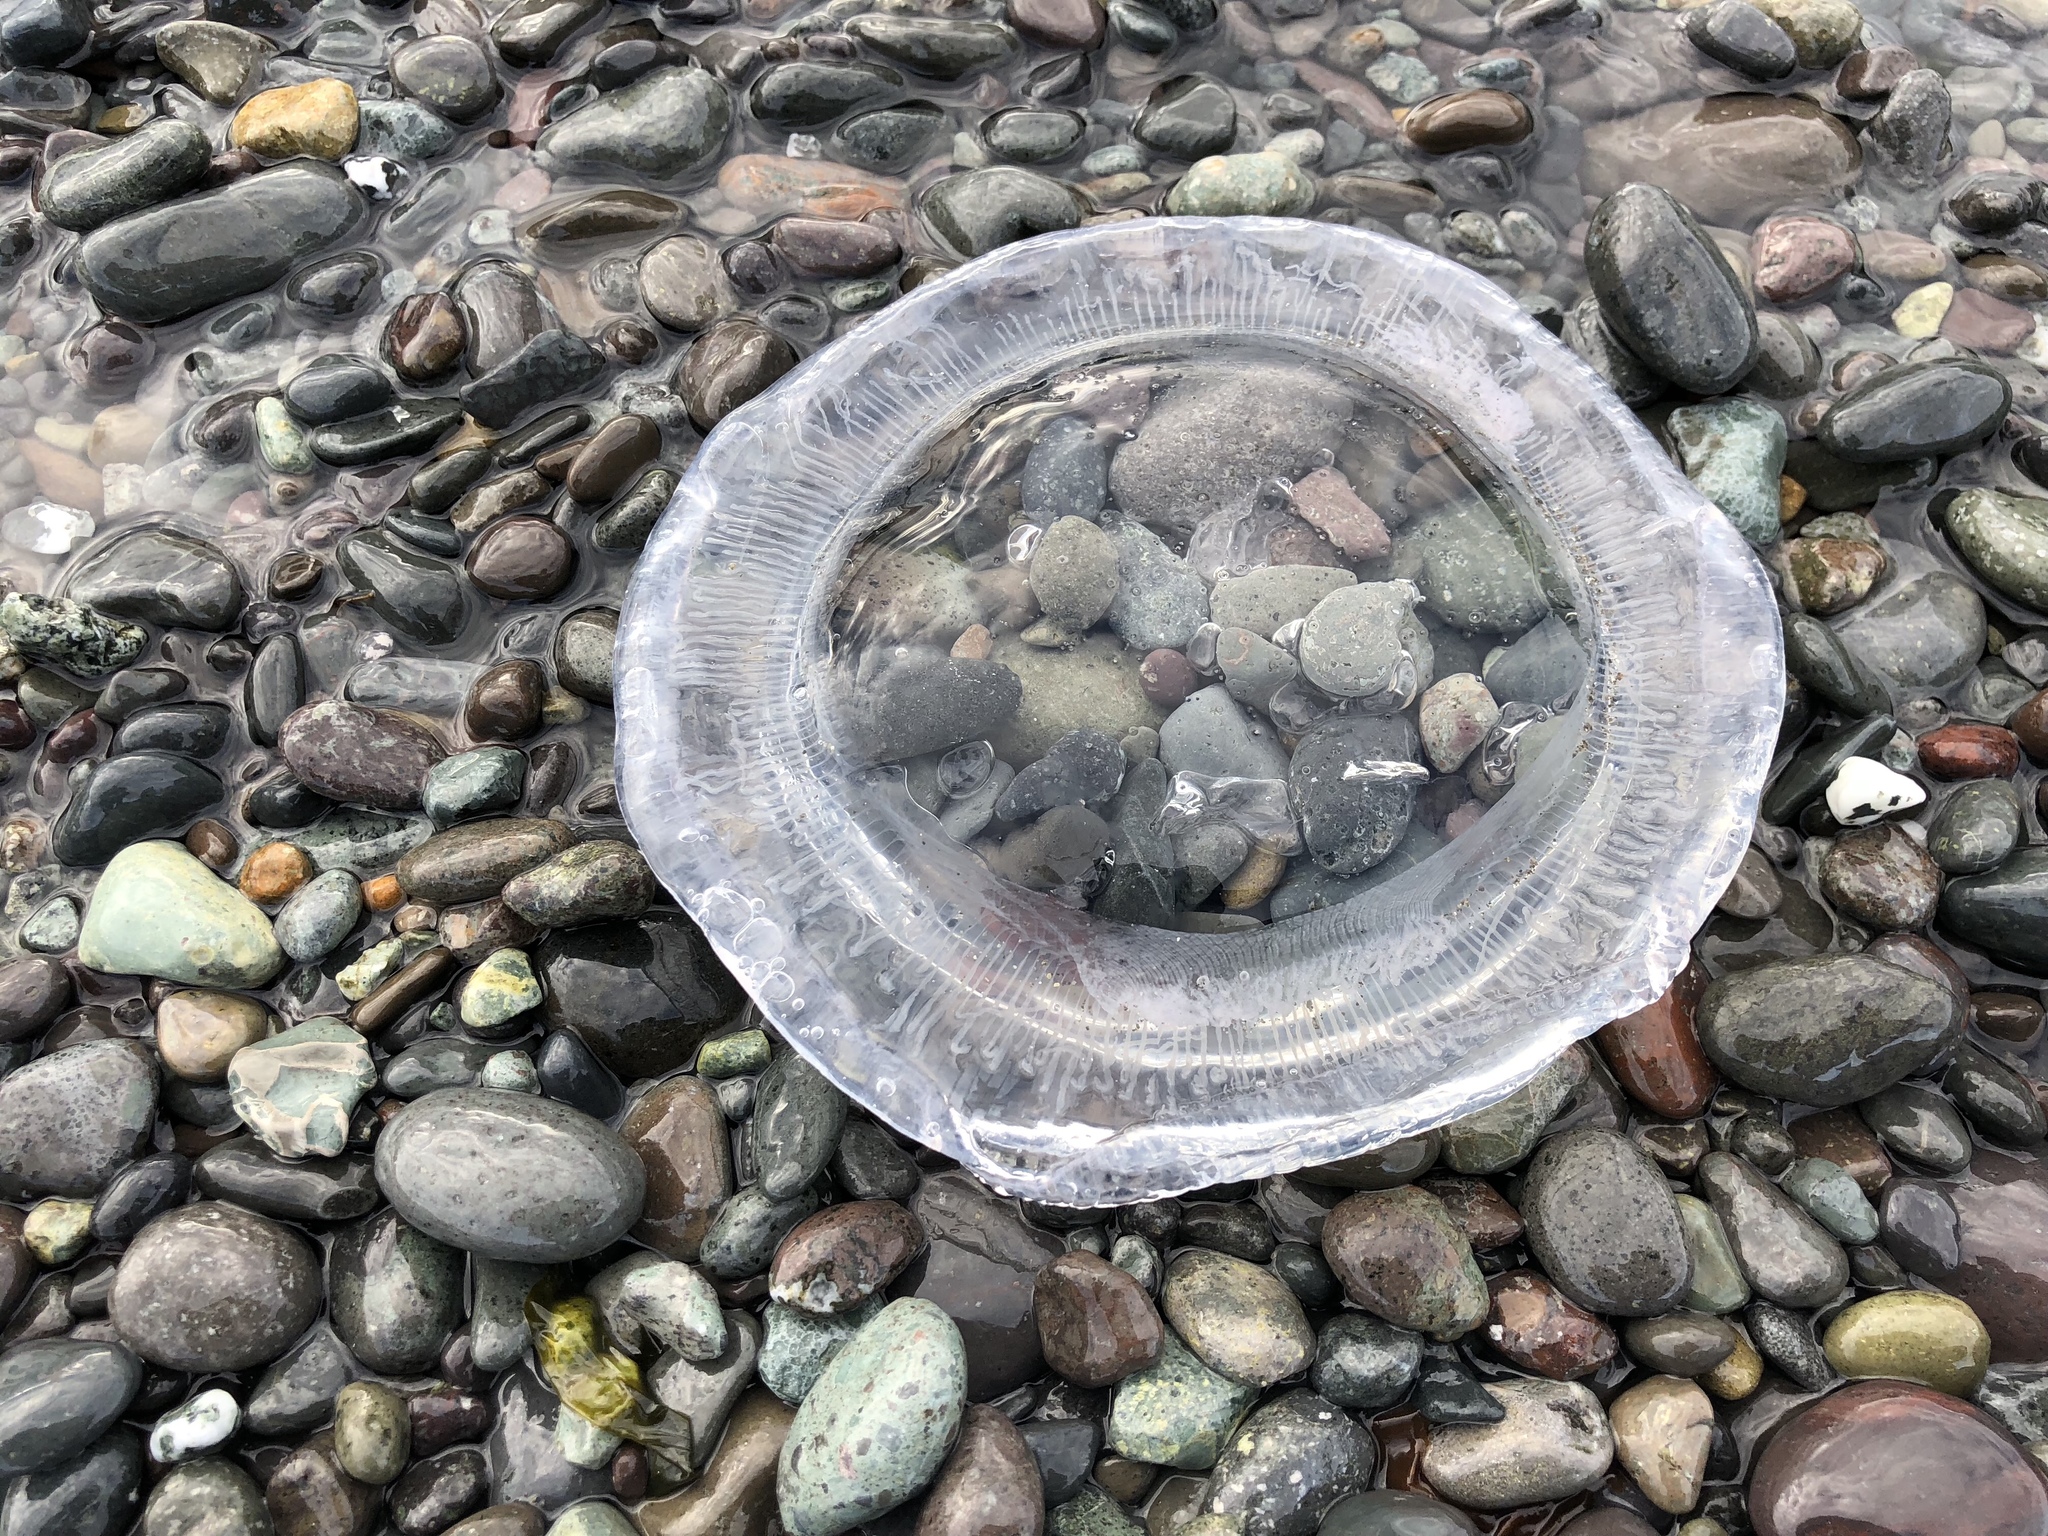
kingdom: Animalia
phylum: Cnidaria
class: Hydrozoa
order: Leptothecata
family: Aequoreidae
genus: Aequorea
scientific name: Aequorea victoria
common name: Water jellyfish
